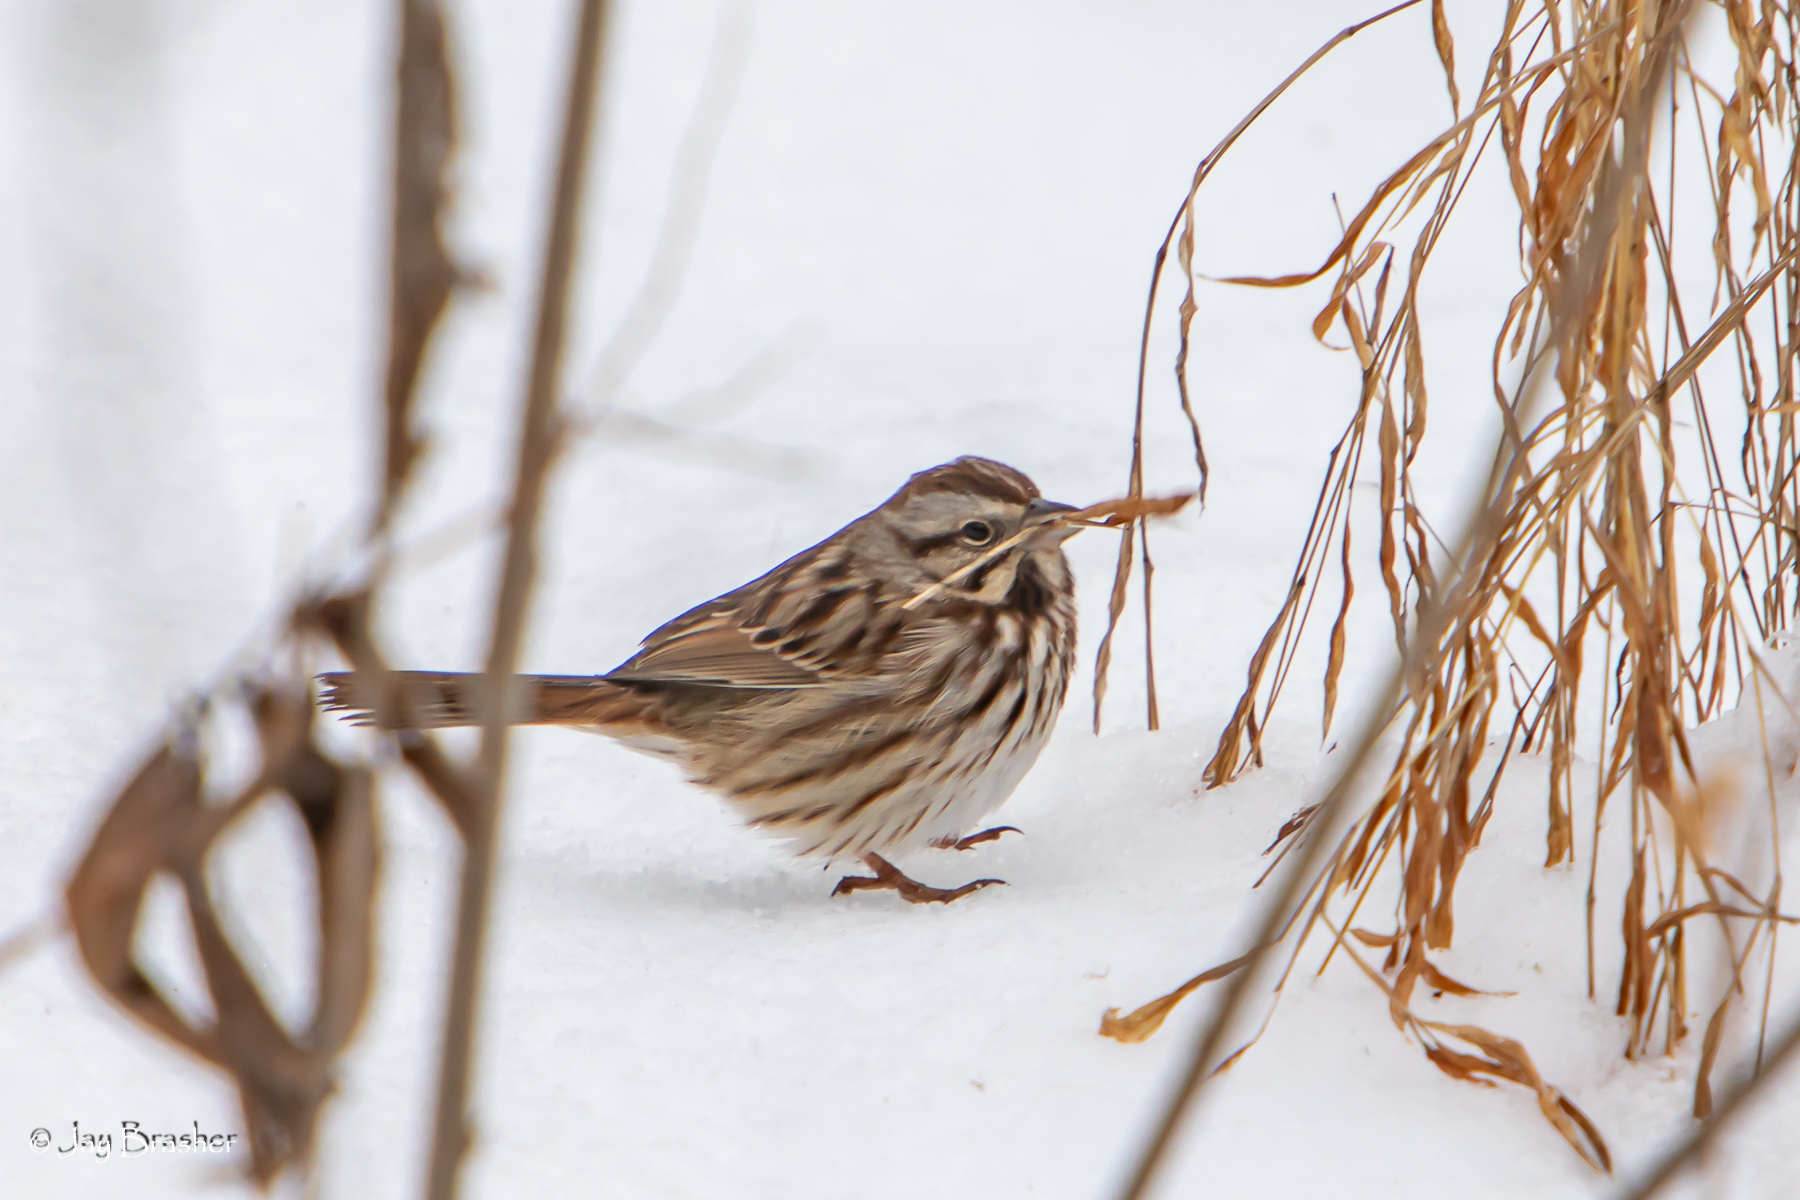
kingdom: Animalia
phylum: Chordata
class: Aves
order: Passeriformes
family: Passerellidae
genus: Melospiza
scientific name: Melospiza melodia
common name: Song sparrow
